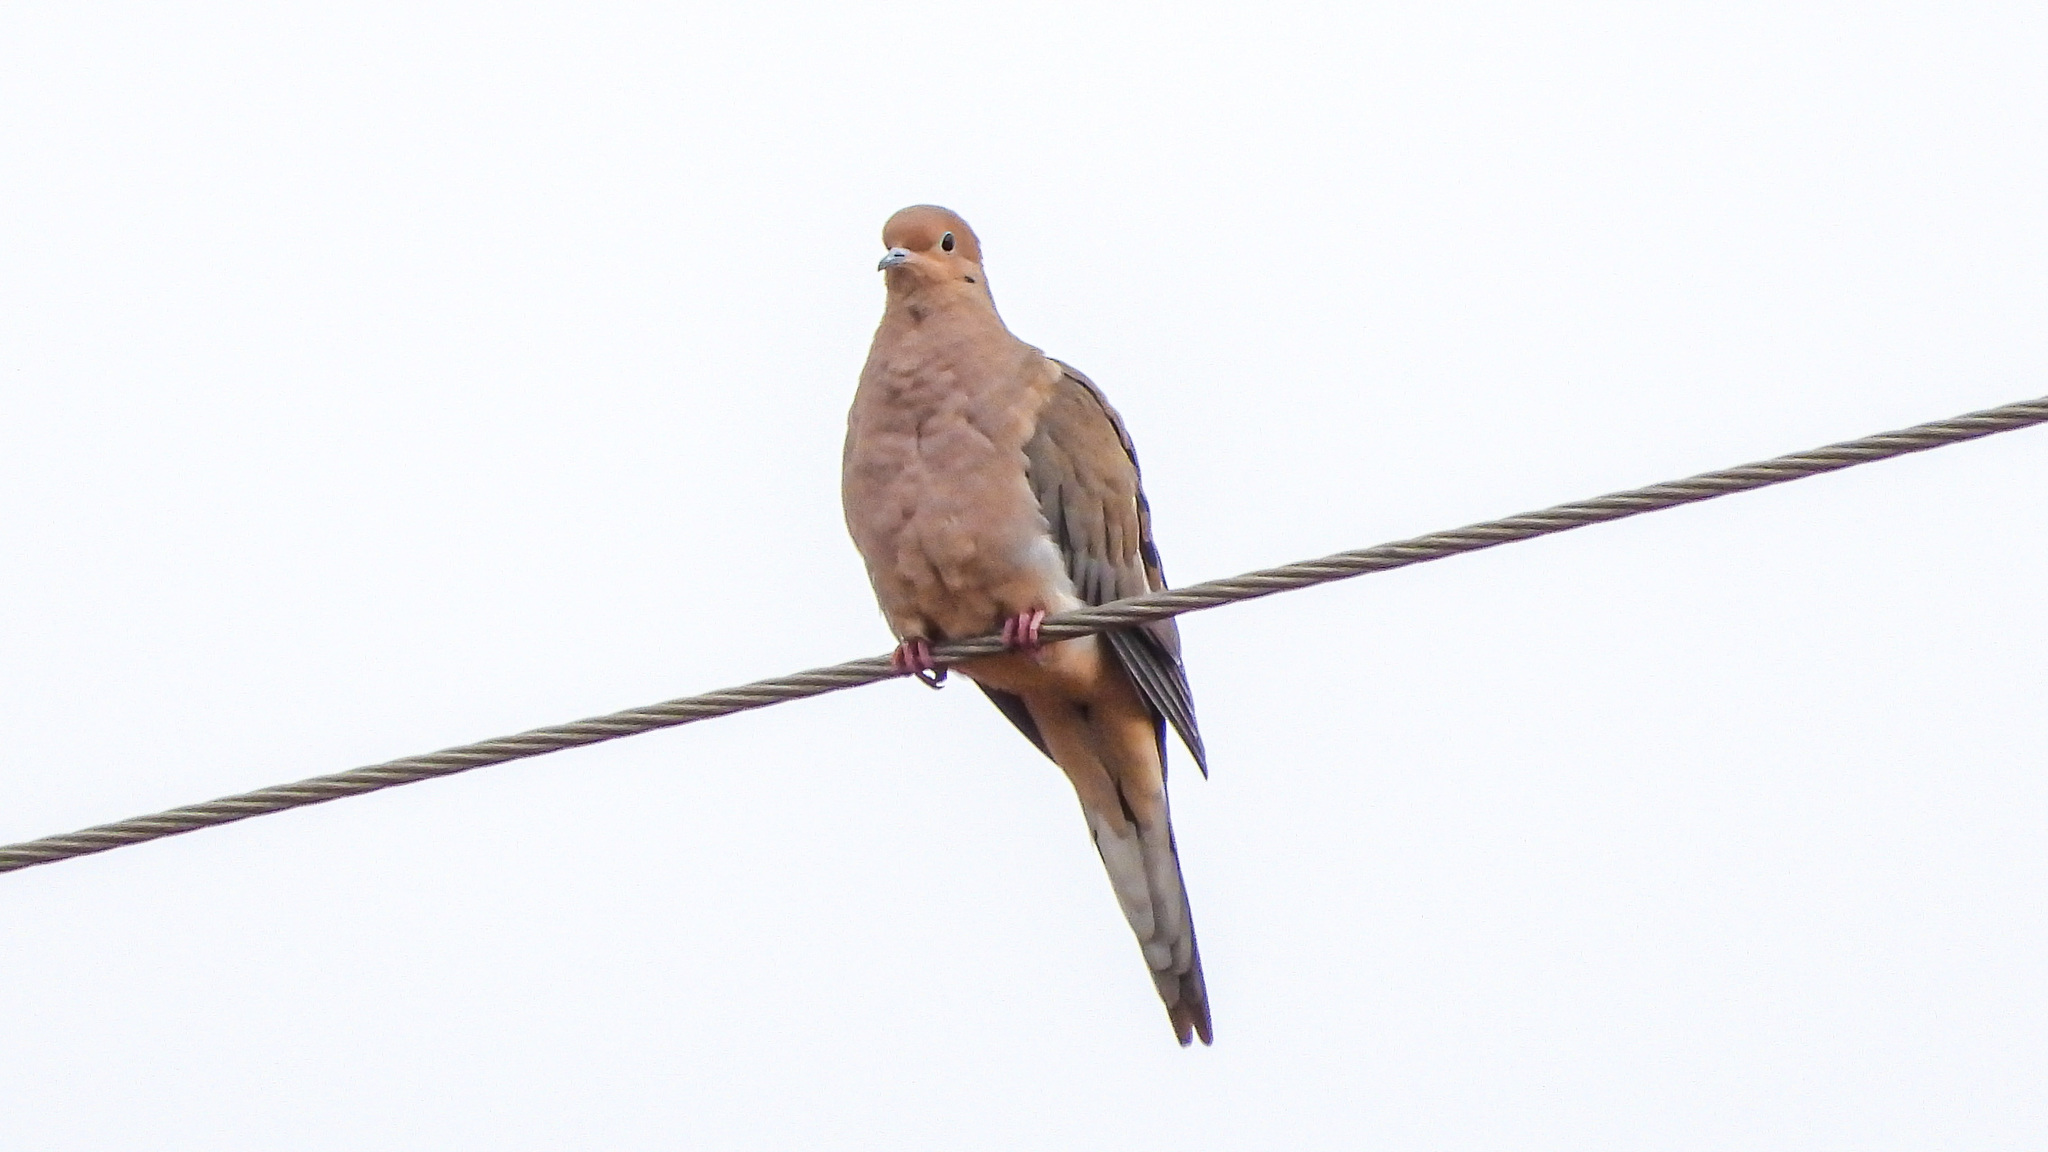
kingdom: Animalia
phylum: Chordata
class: Aves
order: Columbiformes
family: Columbidae
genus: Zenaida
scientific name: Zenaida macroura
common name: Mourning dove
